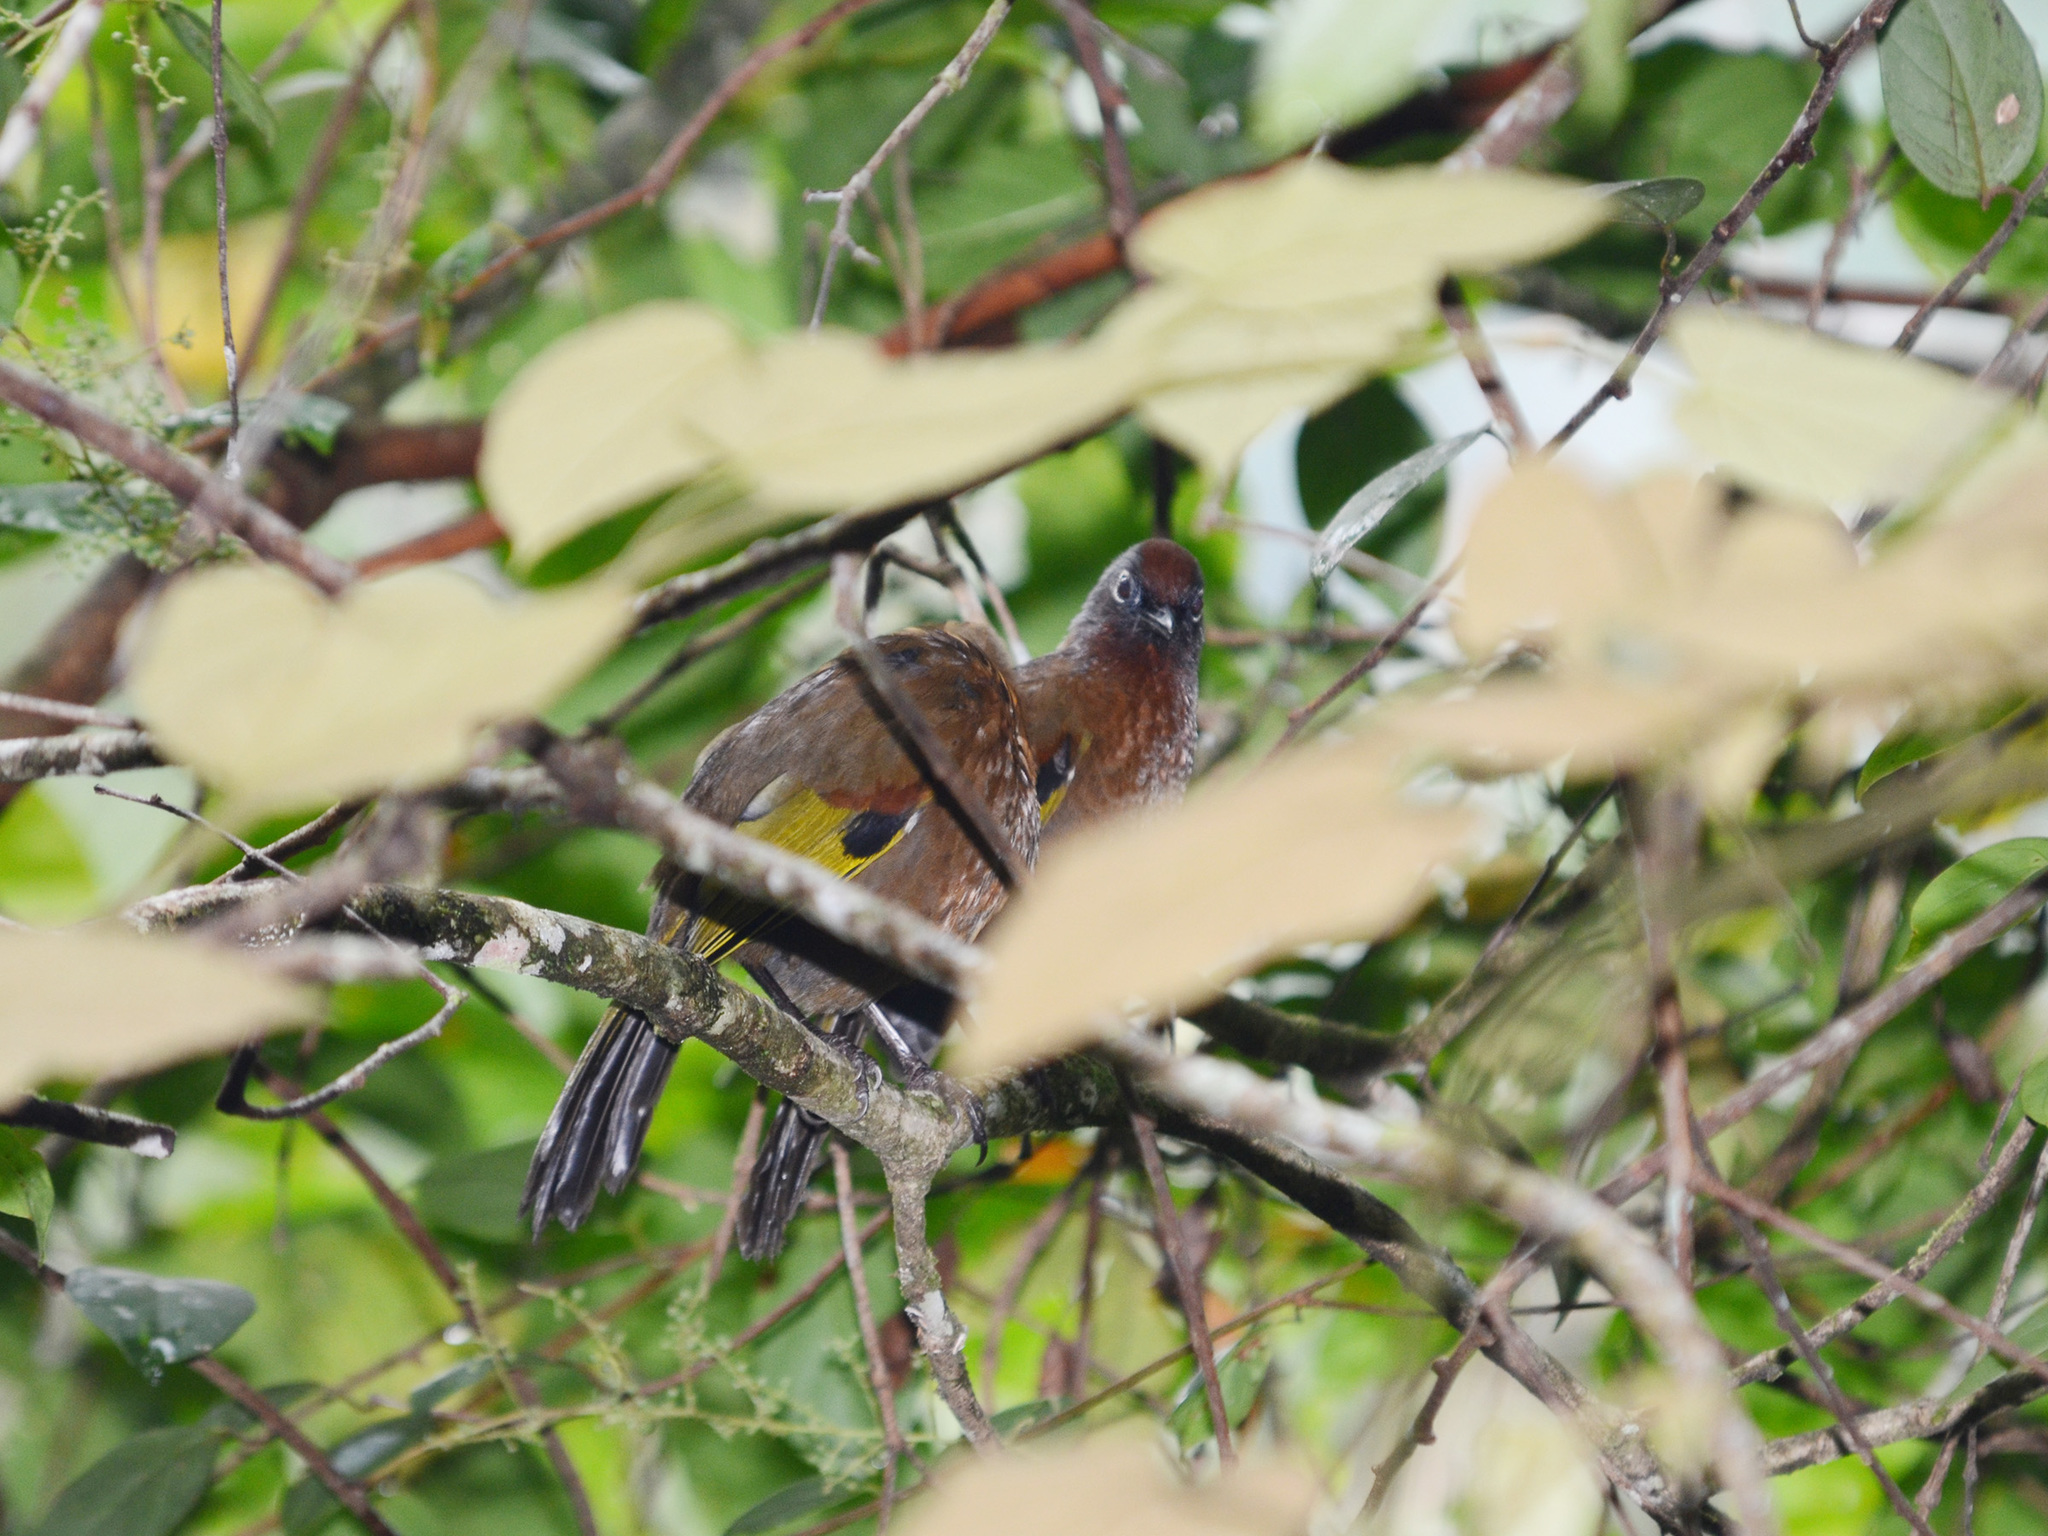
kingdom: Animalia
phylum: Chordata
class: Aves
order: Passeriformes
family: Leiothrichidae
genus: Trochalopteron
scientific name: Trochalopteron peninsulae
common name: Malayan laughingthrush
